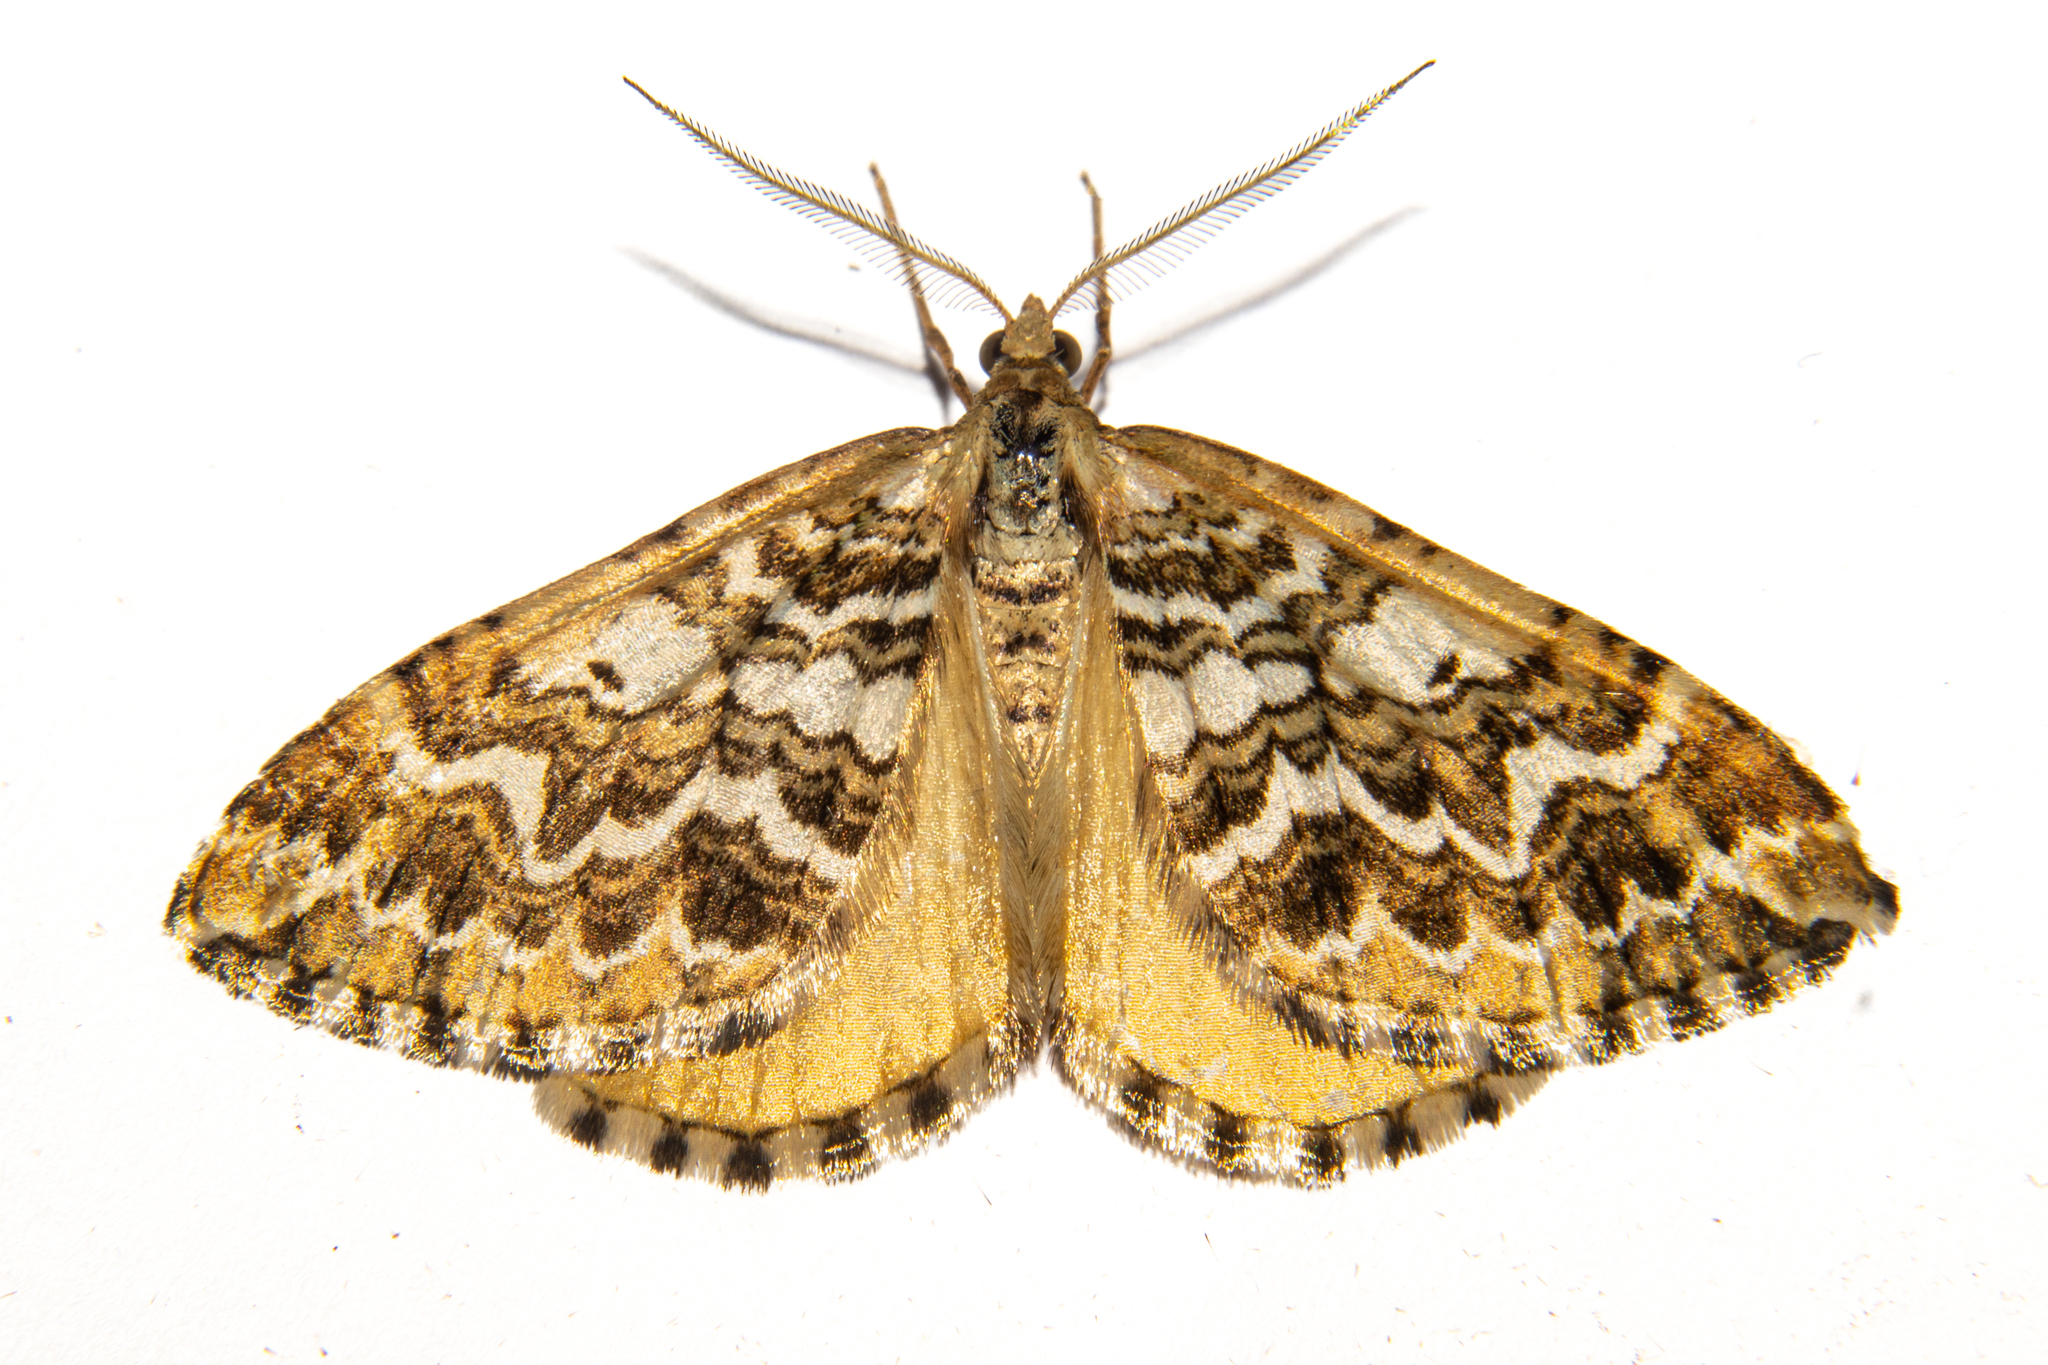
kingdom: Animalia
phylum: Arthropoda
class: Insecta
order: Lepidoptera
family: Geometridae
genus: Asaphodes
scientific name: Asaphodes clarata
